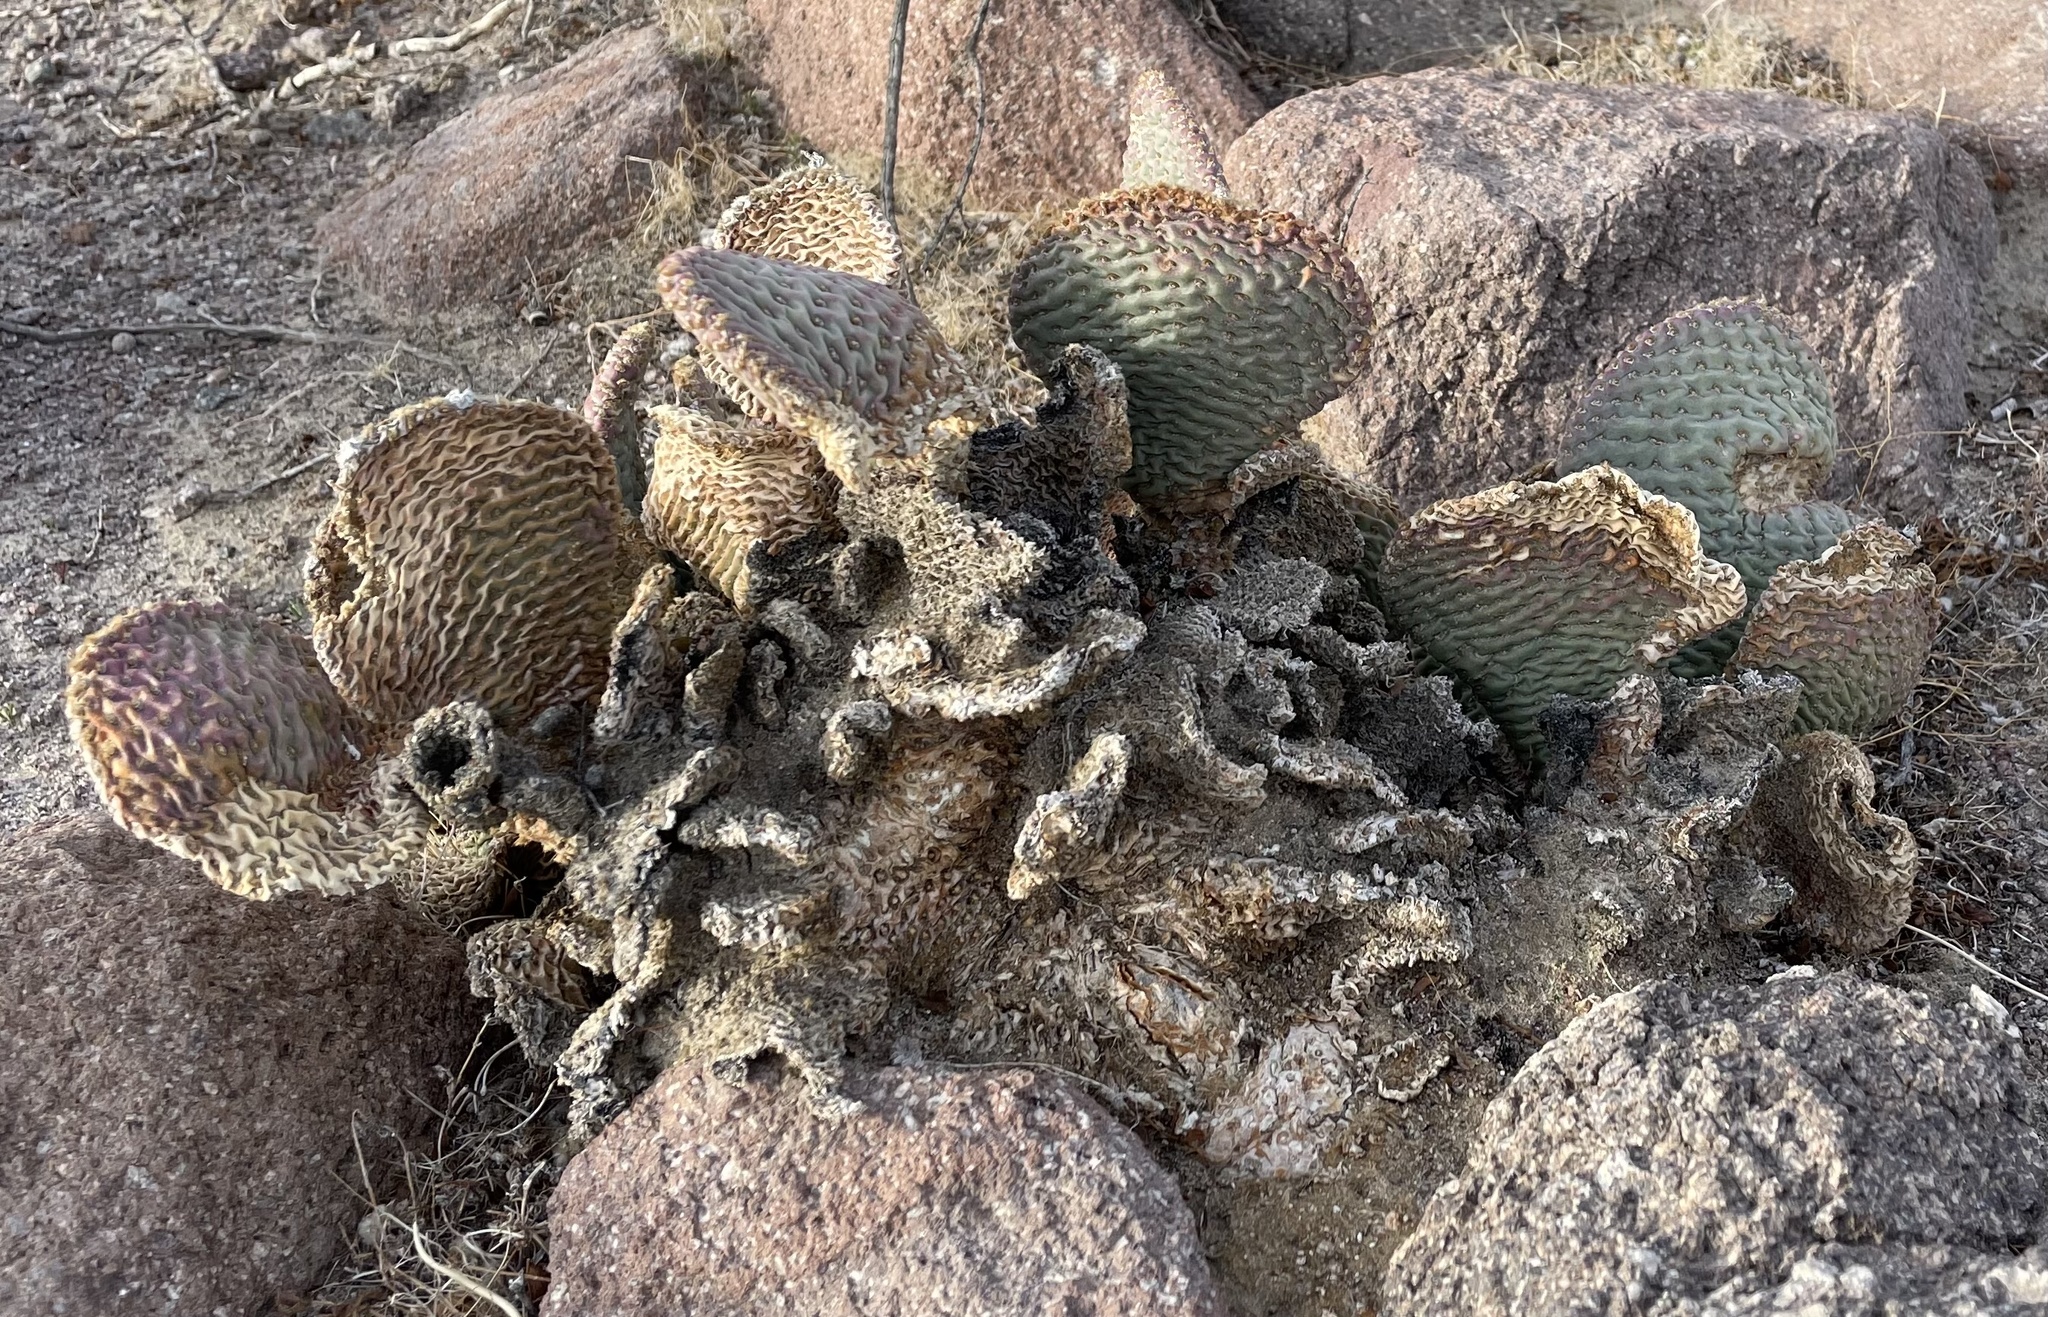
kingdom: Plantae
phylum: Tracheophyta
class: Magnoliopsida
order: Caryophyllales
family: Cactaceae
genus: Opuntia
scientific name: Opuntia basilaris
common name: Beavertail prickly-pear
